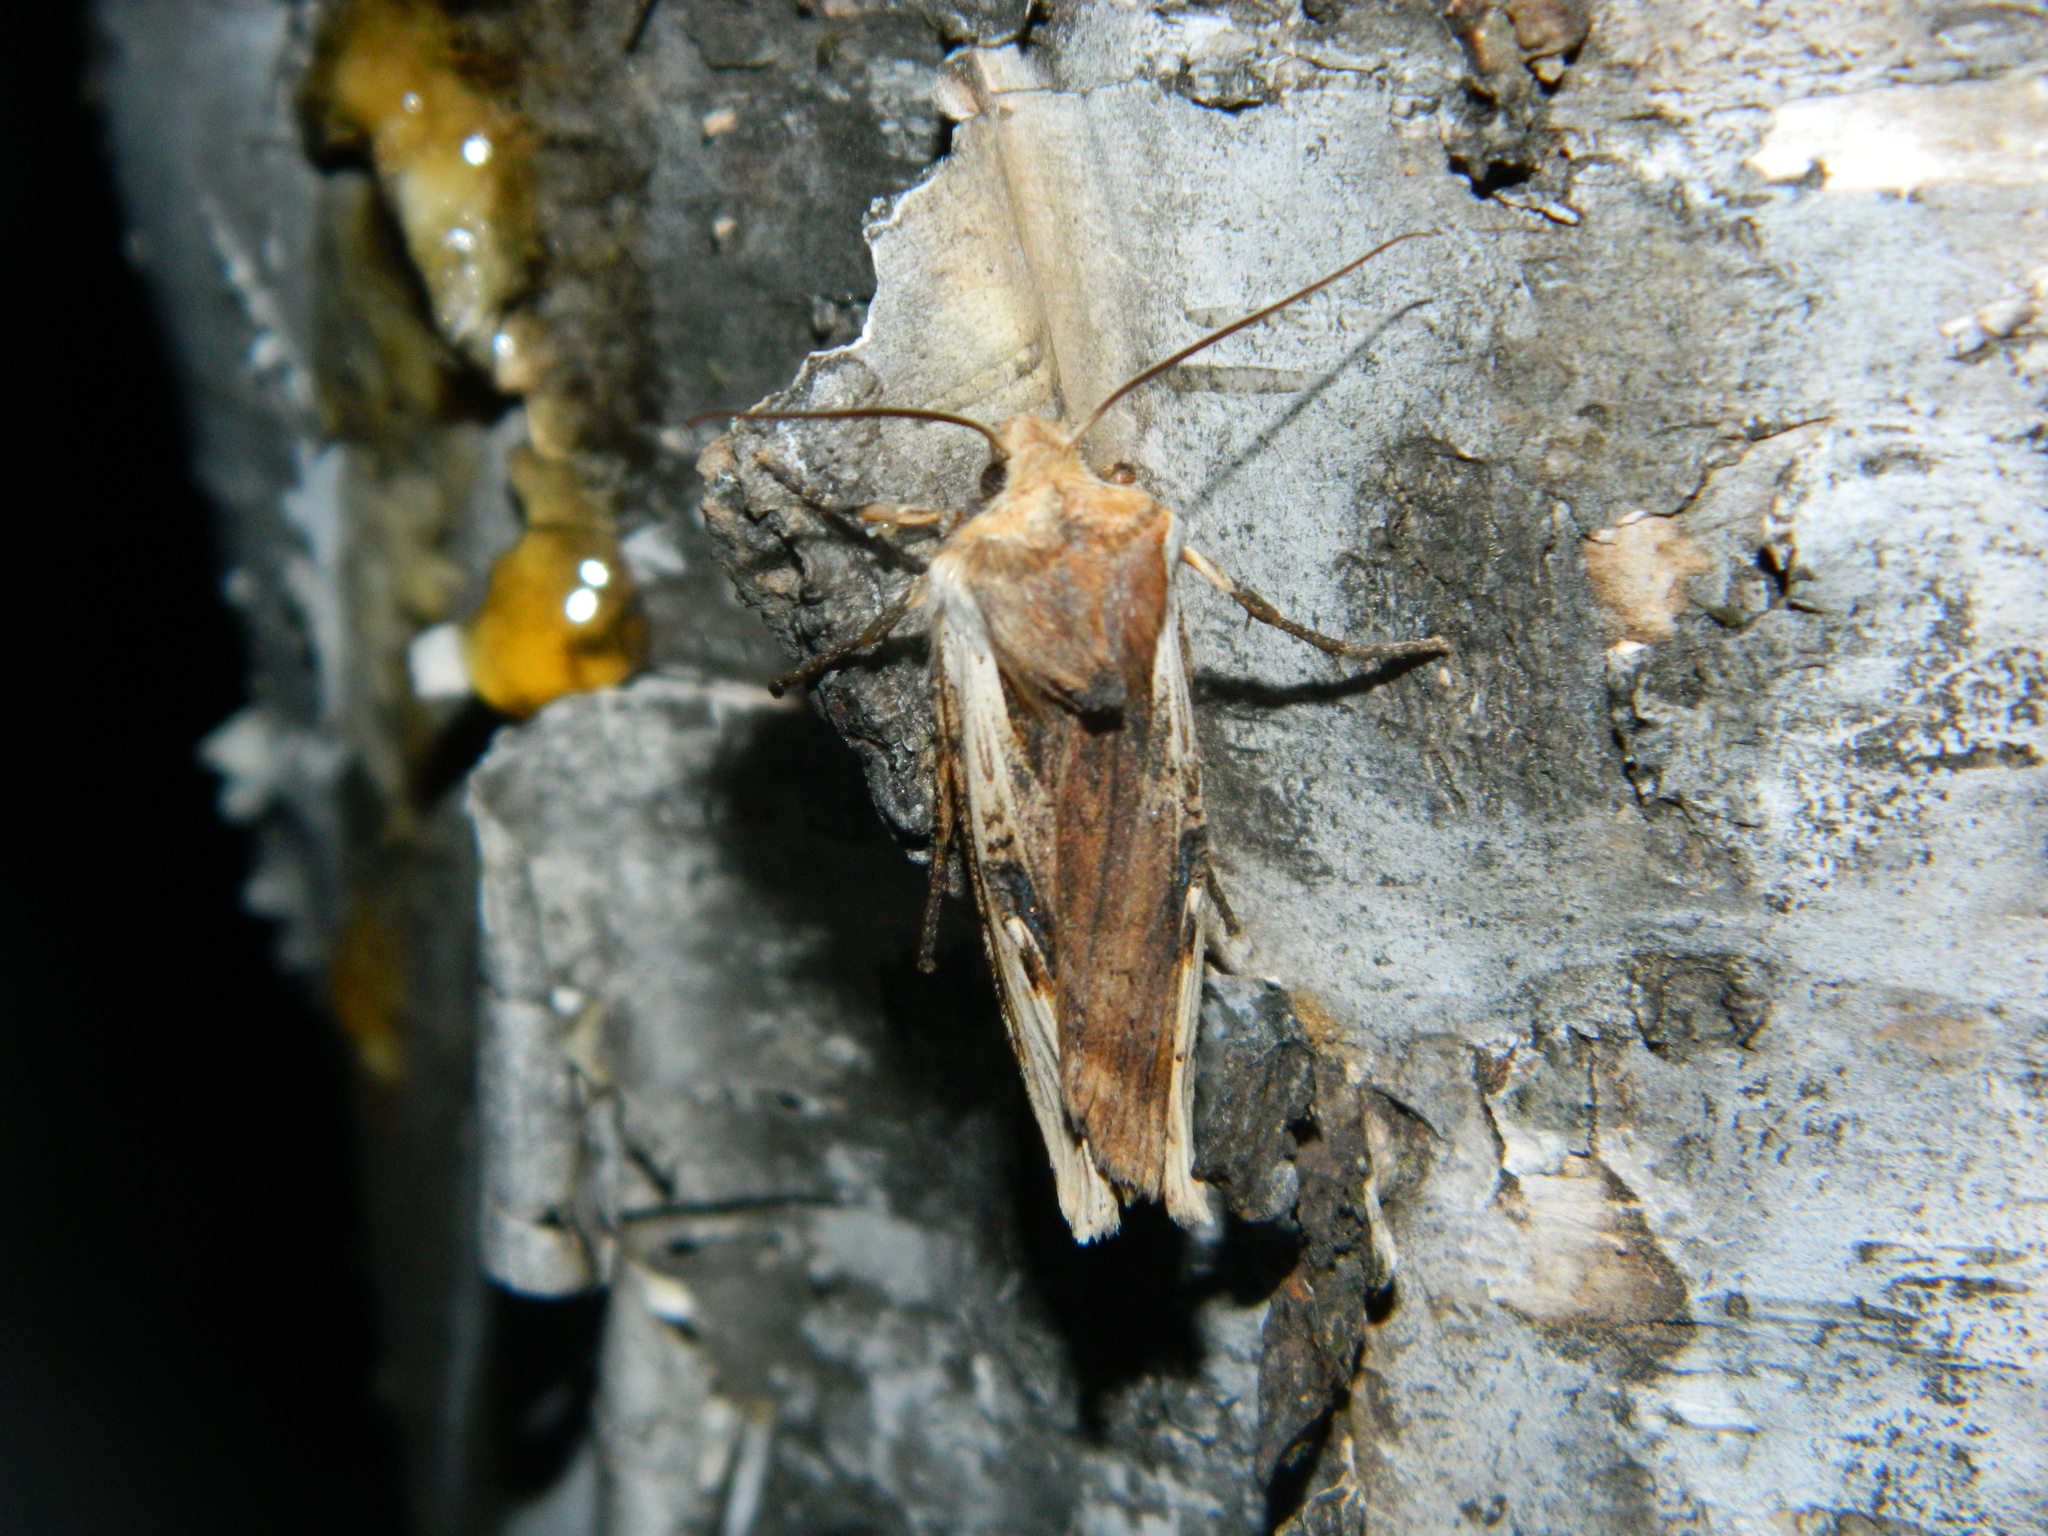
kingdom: Animalia
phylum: Arthropoda
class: Insecta
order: Lepidoptera
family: Noctuidae
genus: Xylena
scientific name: Xylena curvimacula
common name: Dot-and-dash swordgrass moth
